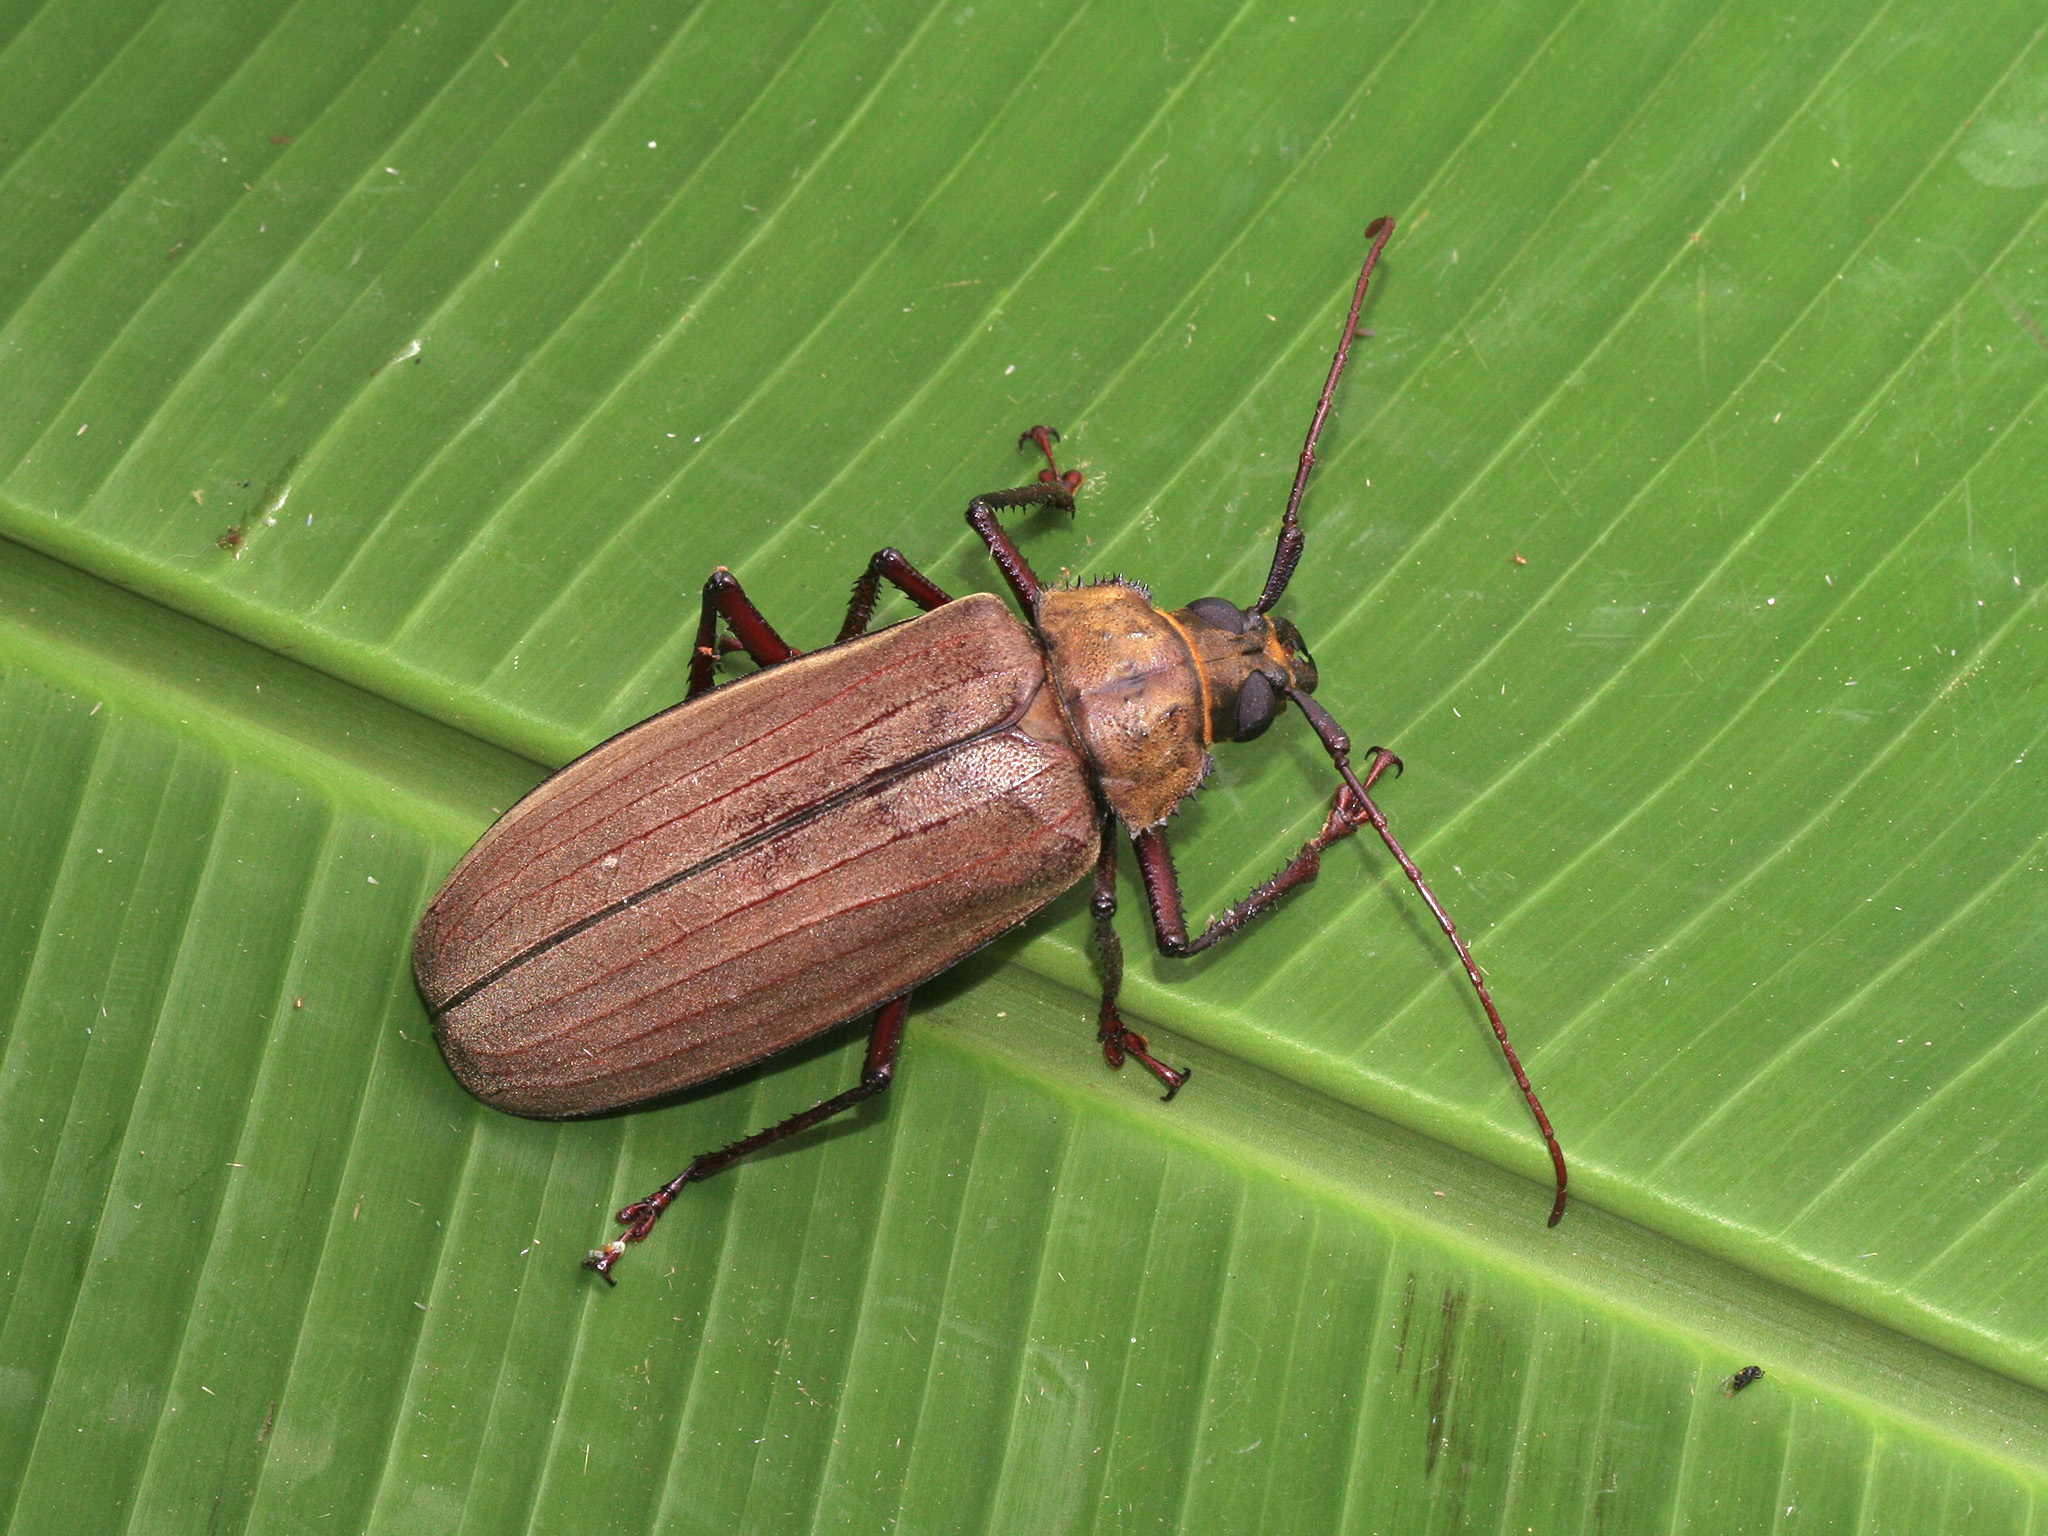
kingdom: Animalia
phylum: Arthropoda
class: Insecta
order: Coleoptera
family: Cerambycidae
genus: Xixuthrus
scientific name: Xixuthrus microcerus
